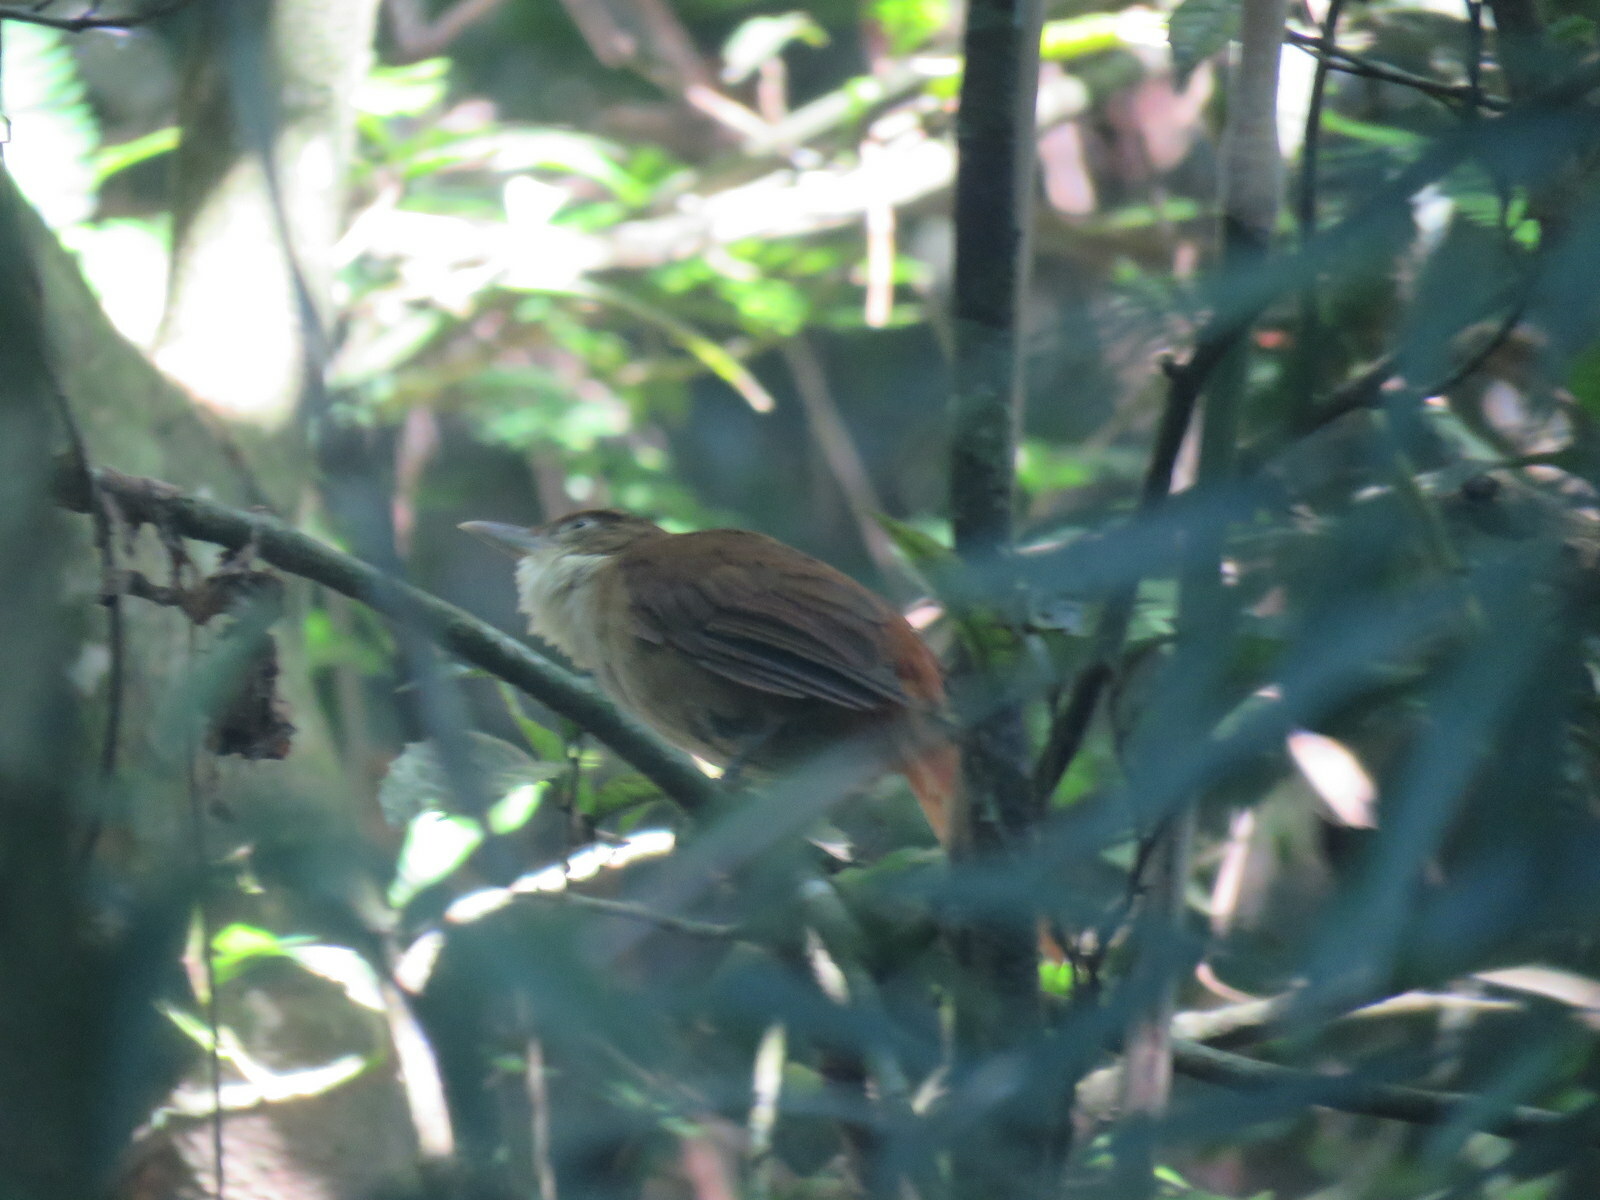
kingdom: Animalia
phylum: Chordata
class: Aves
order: Passeriformes
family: Furnariidae
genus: Automolus
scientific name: Automolus leucophthalmus
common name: White-eyed foliage-gleaner
